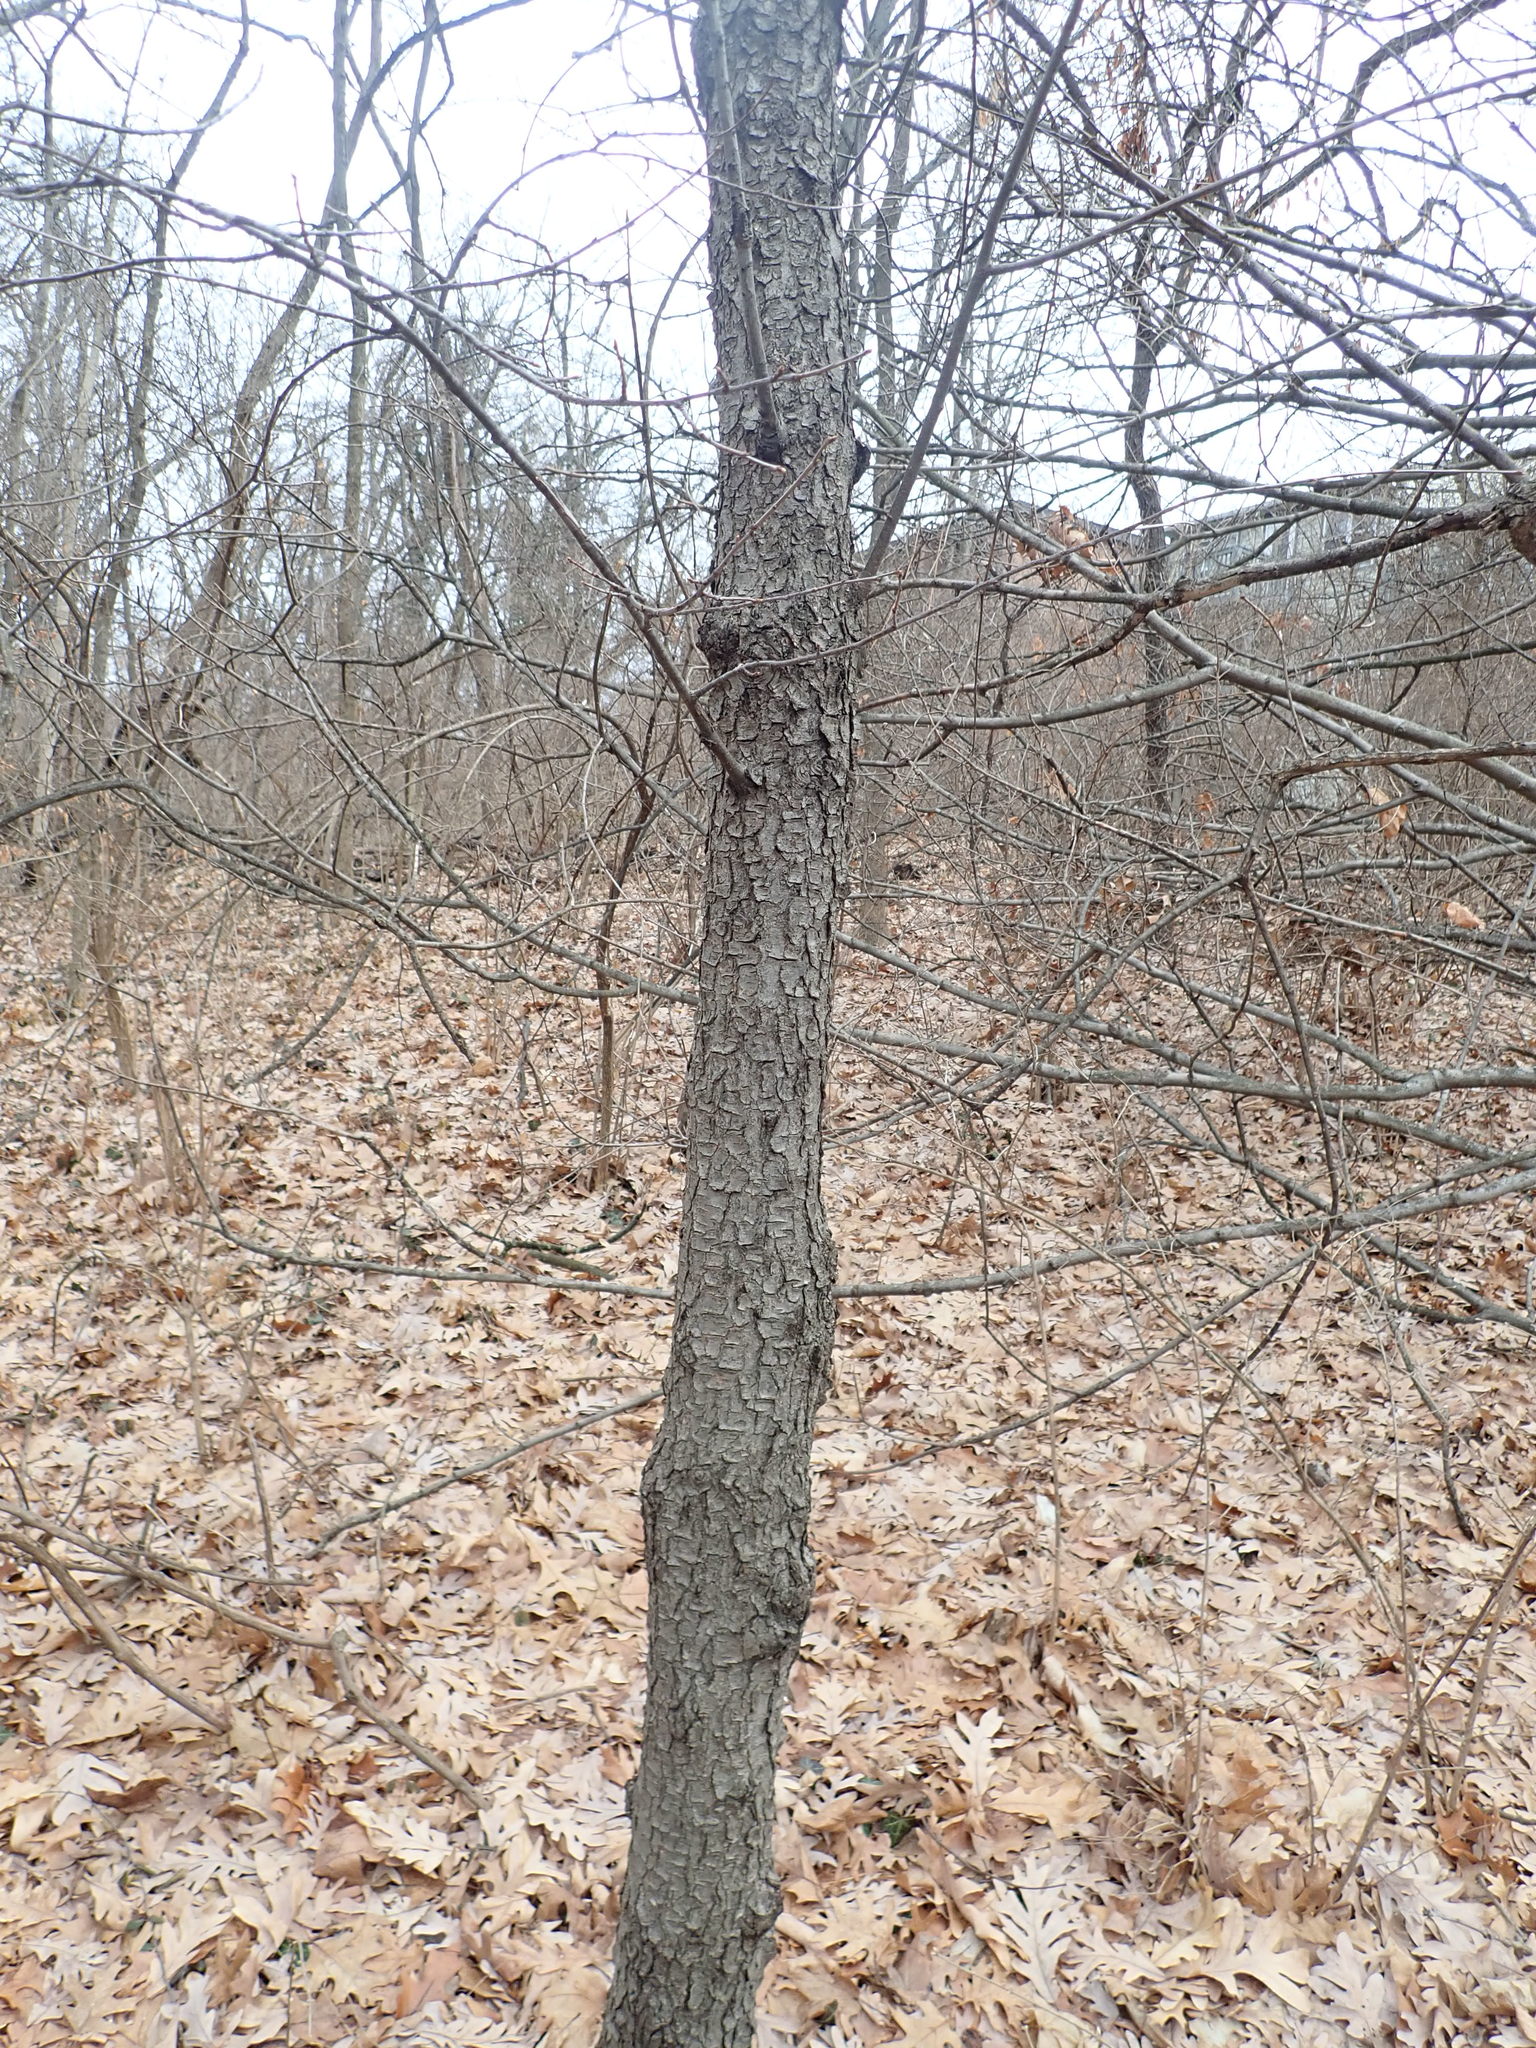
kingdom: Plantae
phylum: Tracheophyta
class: Magnoliopsida
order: Rosales
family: Rosaceae
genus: Prunus
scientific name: Prunus serotina
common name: Black cherry
